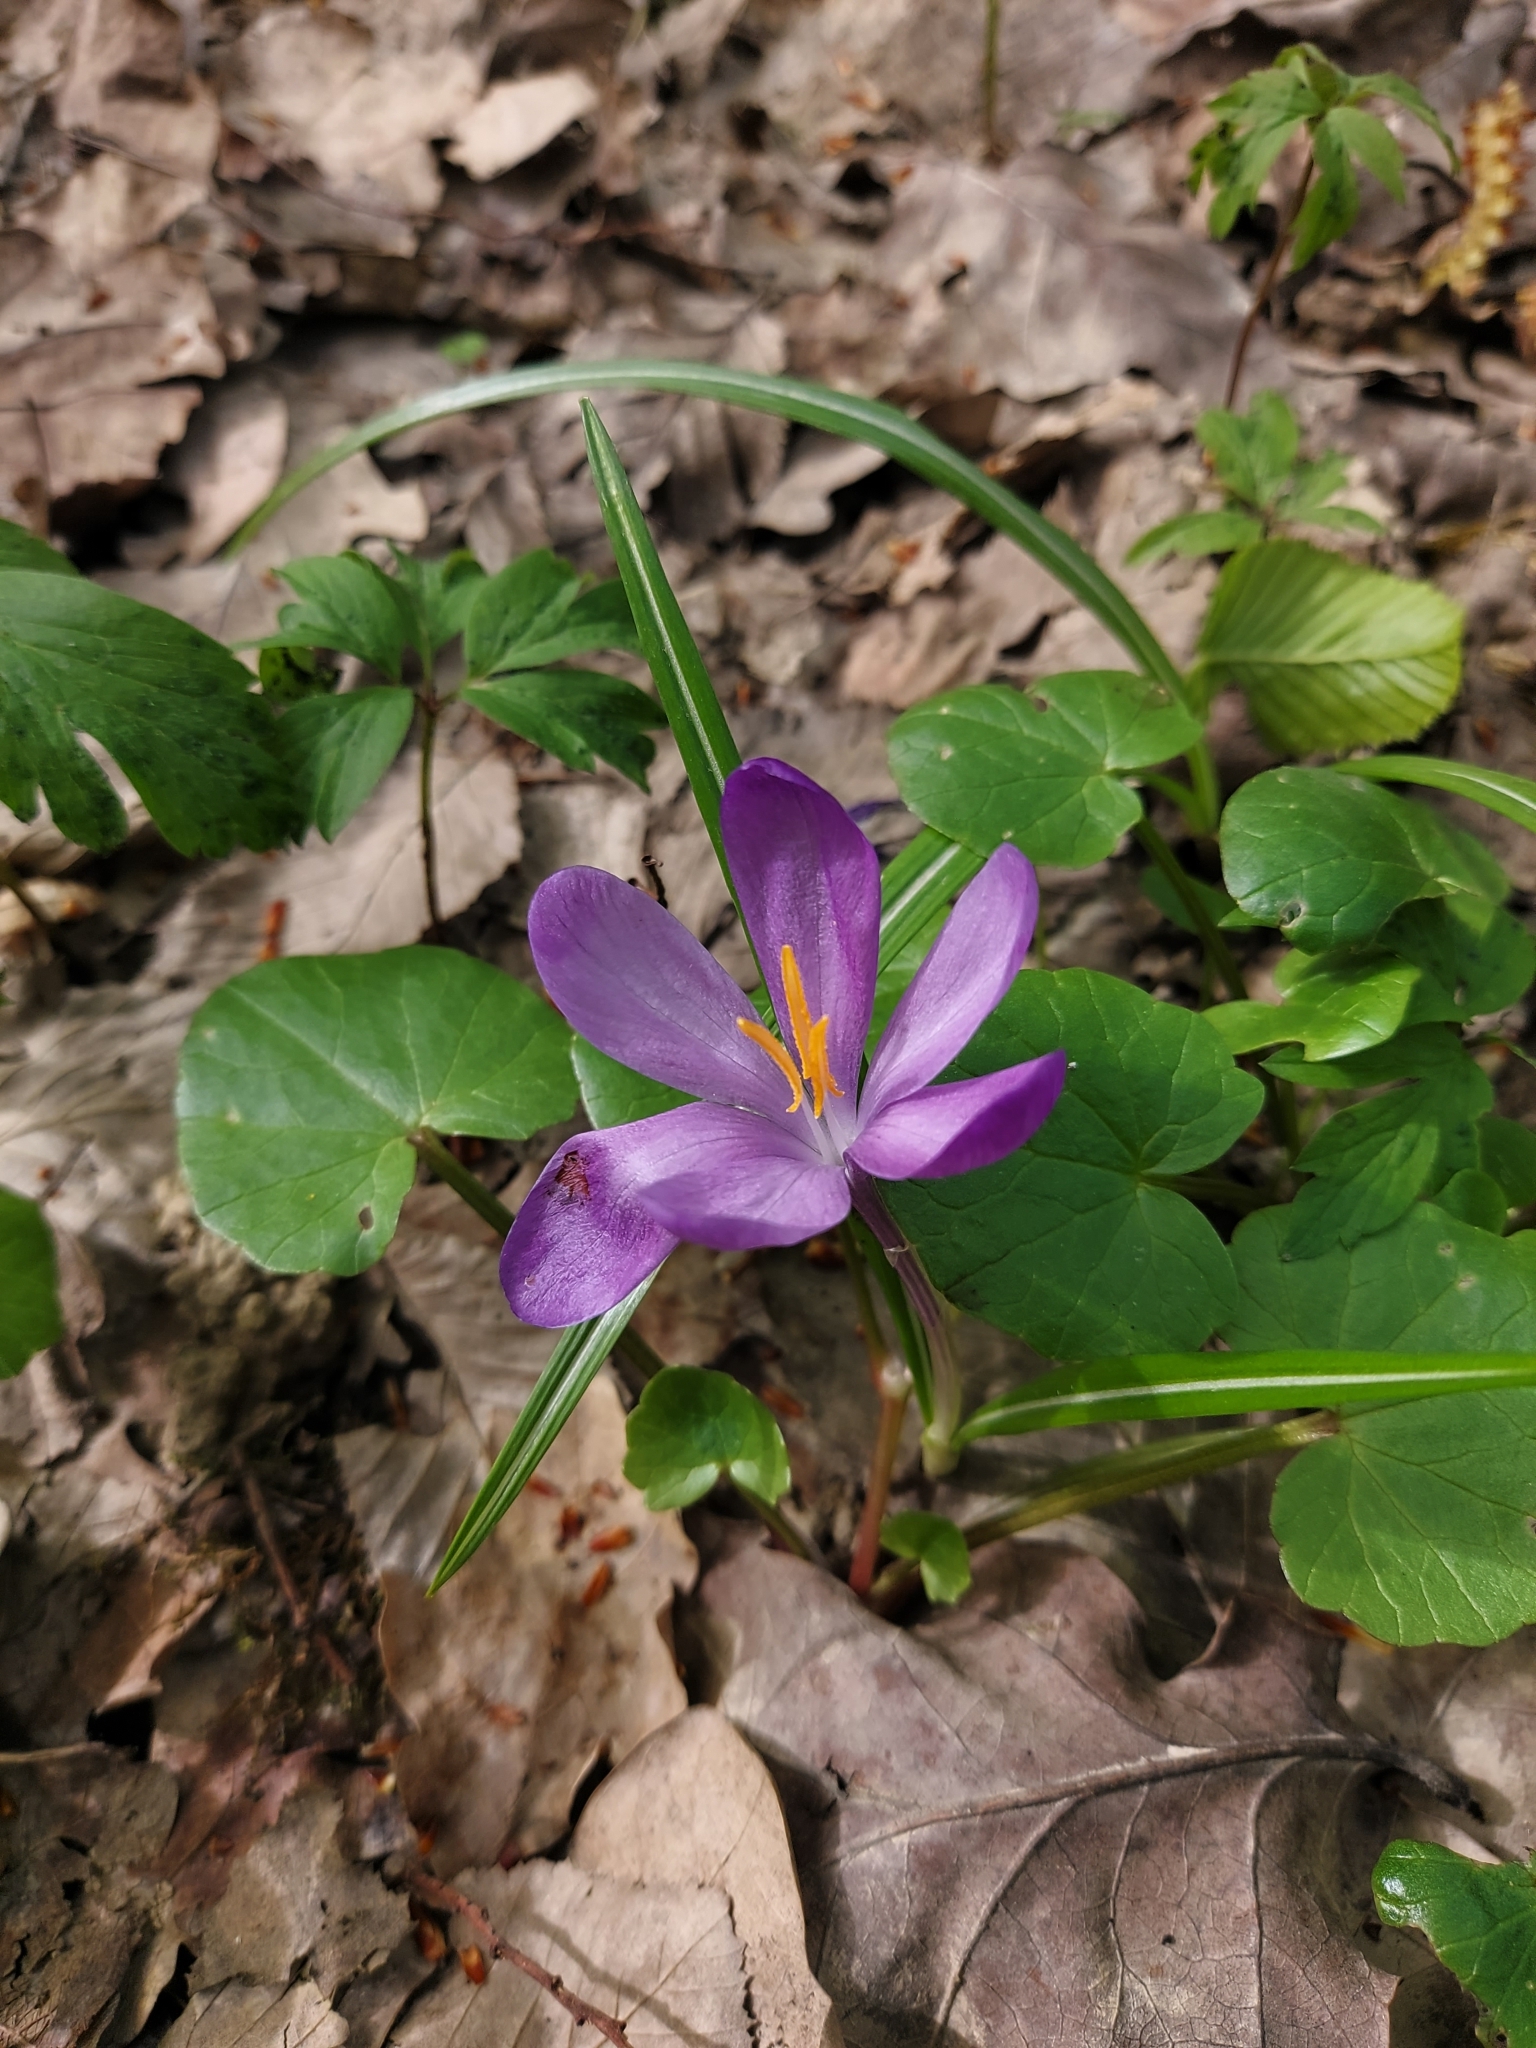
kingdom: Plantae
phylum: Tracheophyta
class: Liliopsida
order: Asparagales
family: Iridaceae
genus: Crocus
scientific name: Crocus heuffelianus
